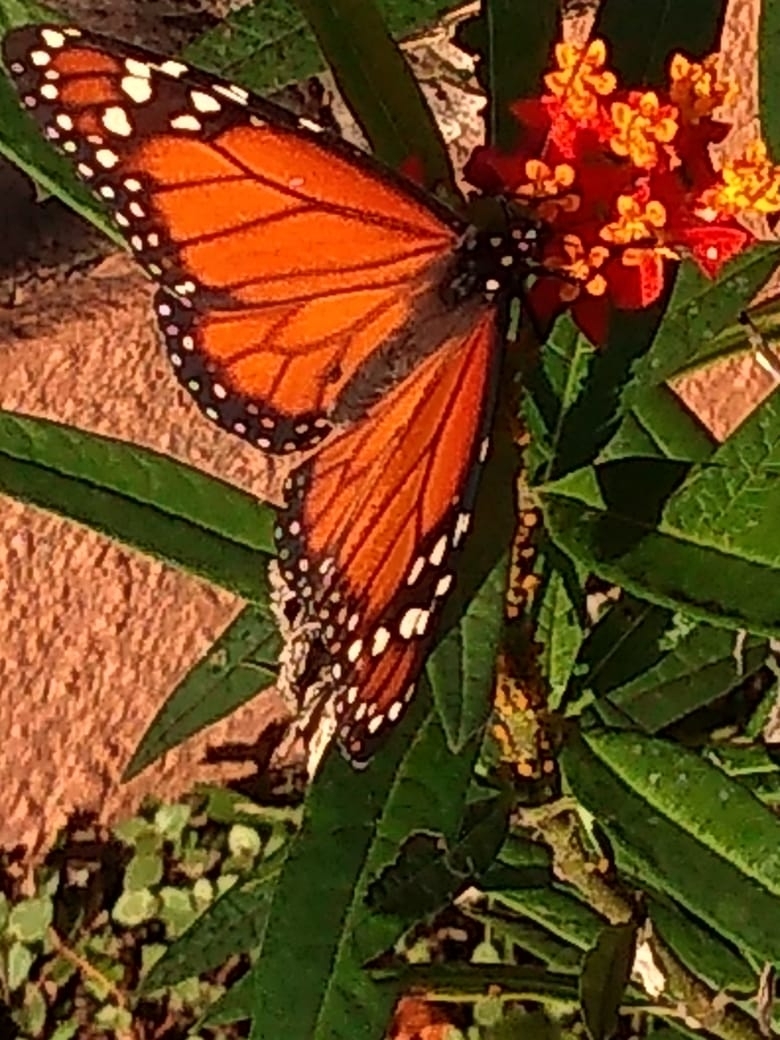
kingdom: Animalia
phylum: Arthropoda
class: Insecta
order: Lepidoptera
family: Nymphalidae
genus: Danaus
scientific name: Danaus erippus
